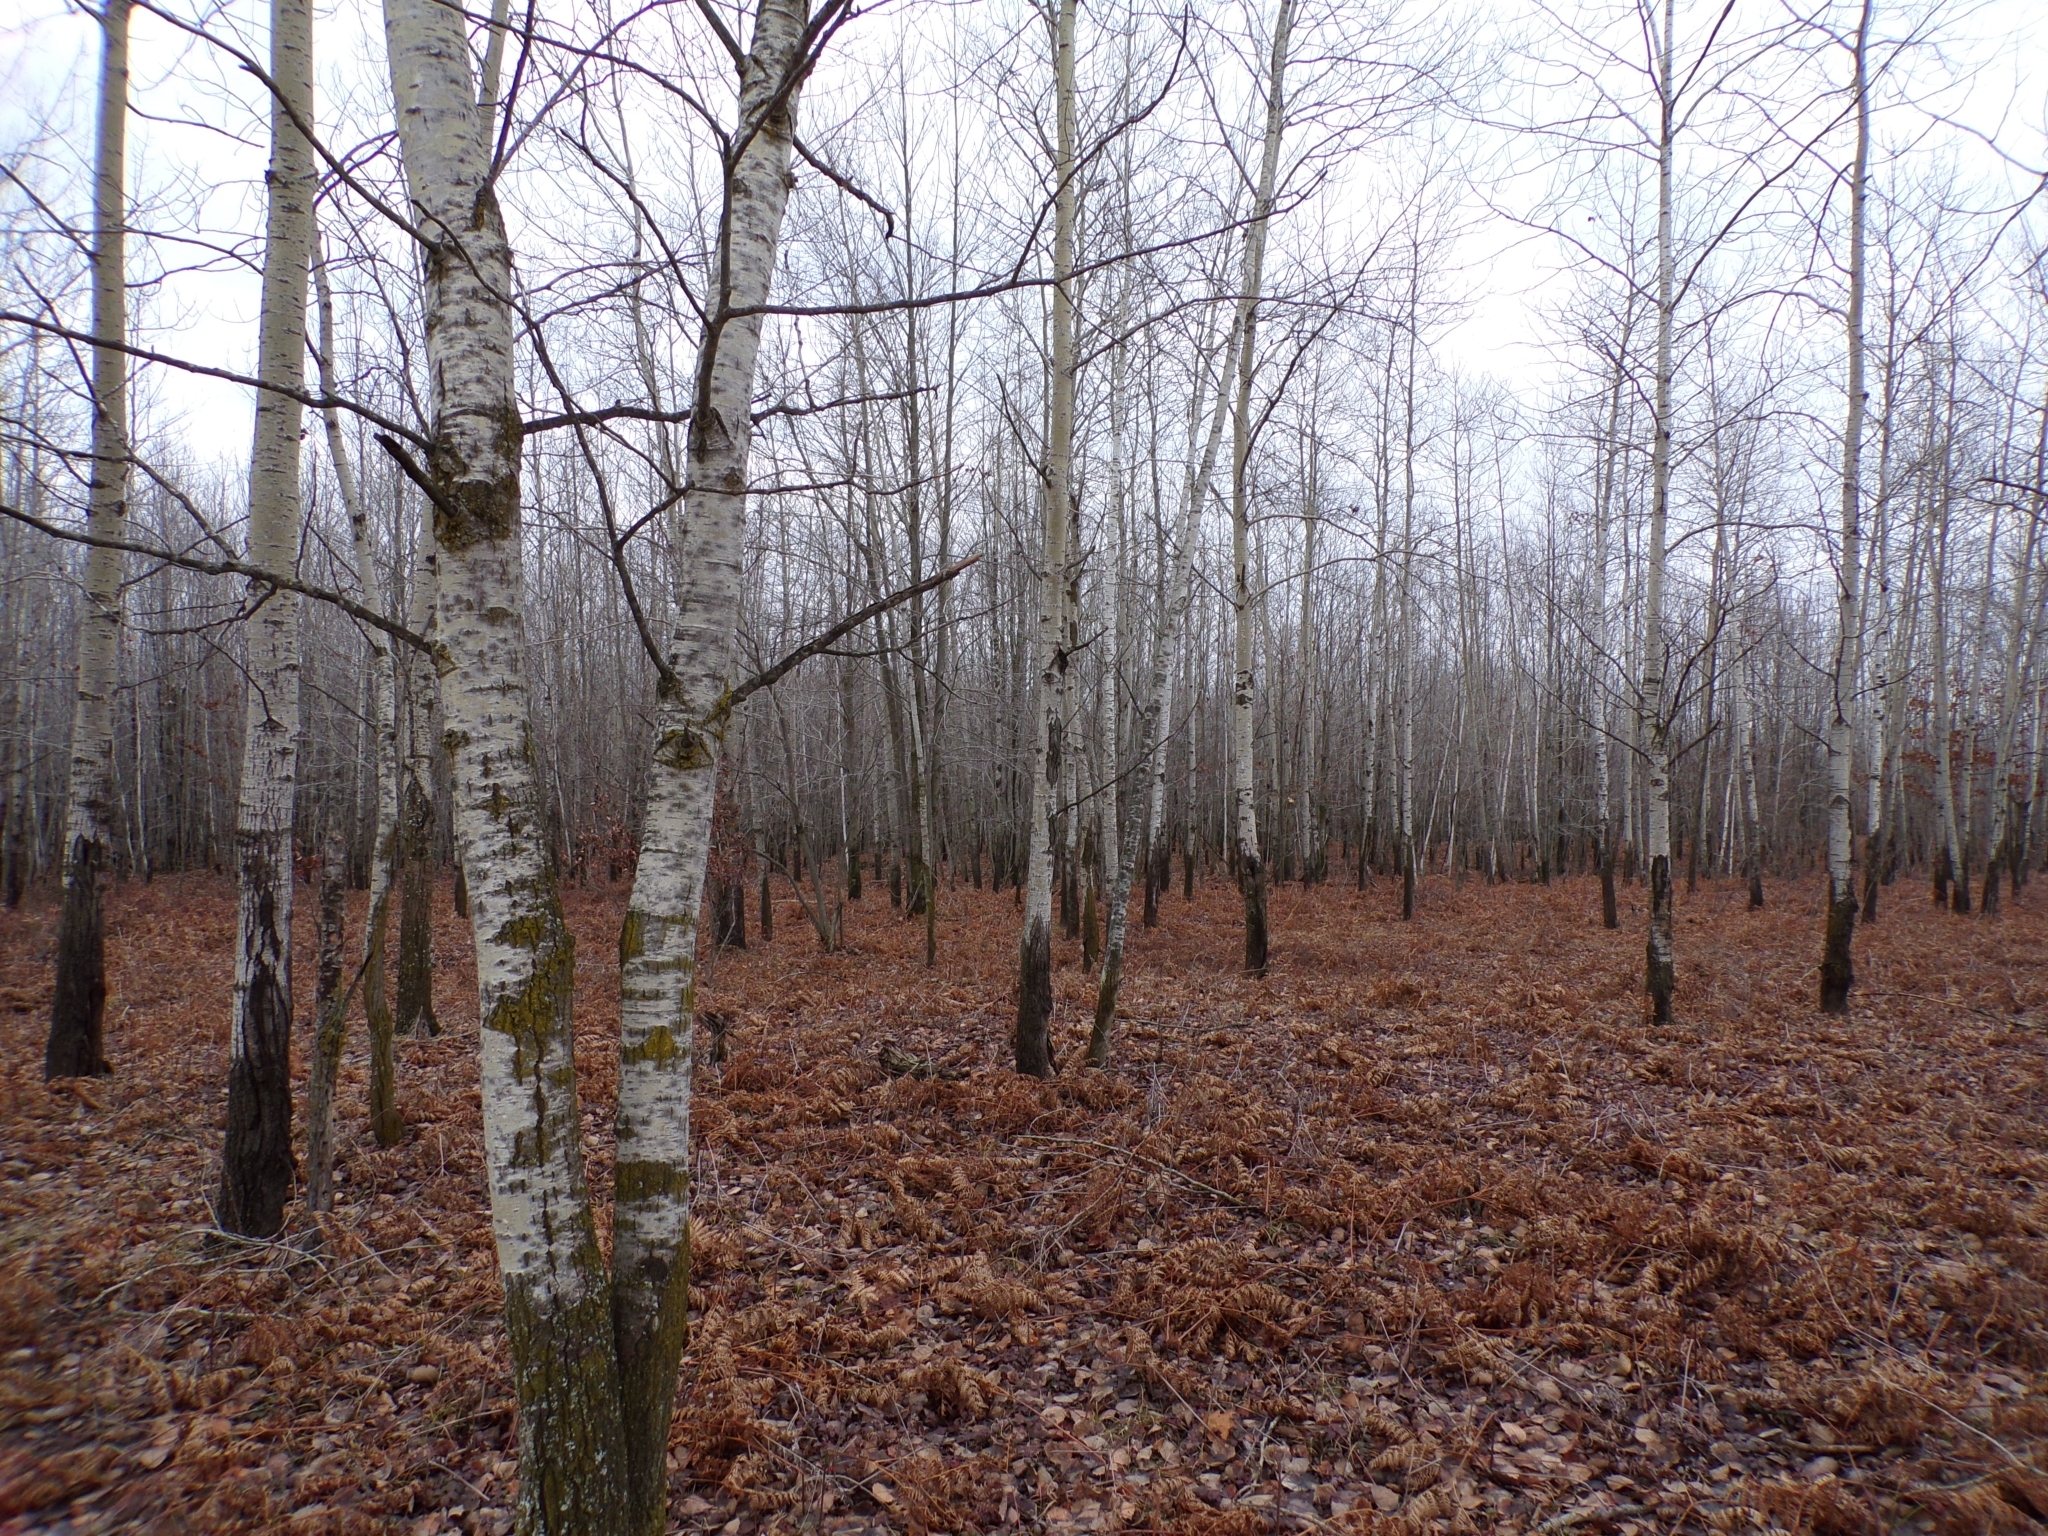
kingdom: Plantae
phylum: Tracheophyta
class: Magnoliopsida
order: Malpighiales
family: Salicaceae
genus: Populus
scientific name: Populus tremuloides
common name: Quaking aspen
